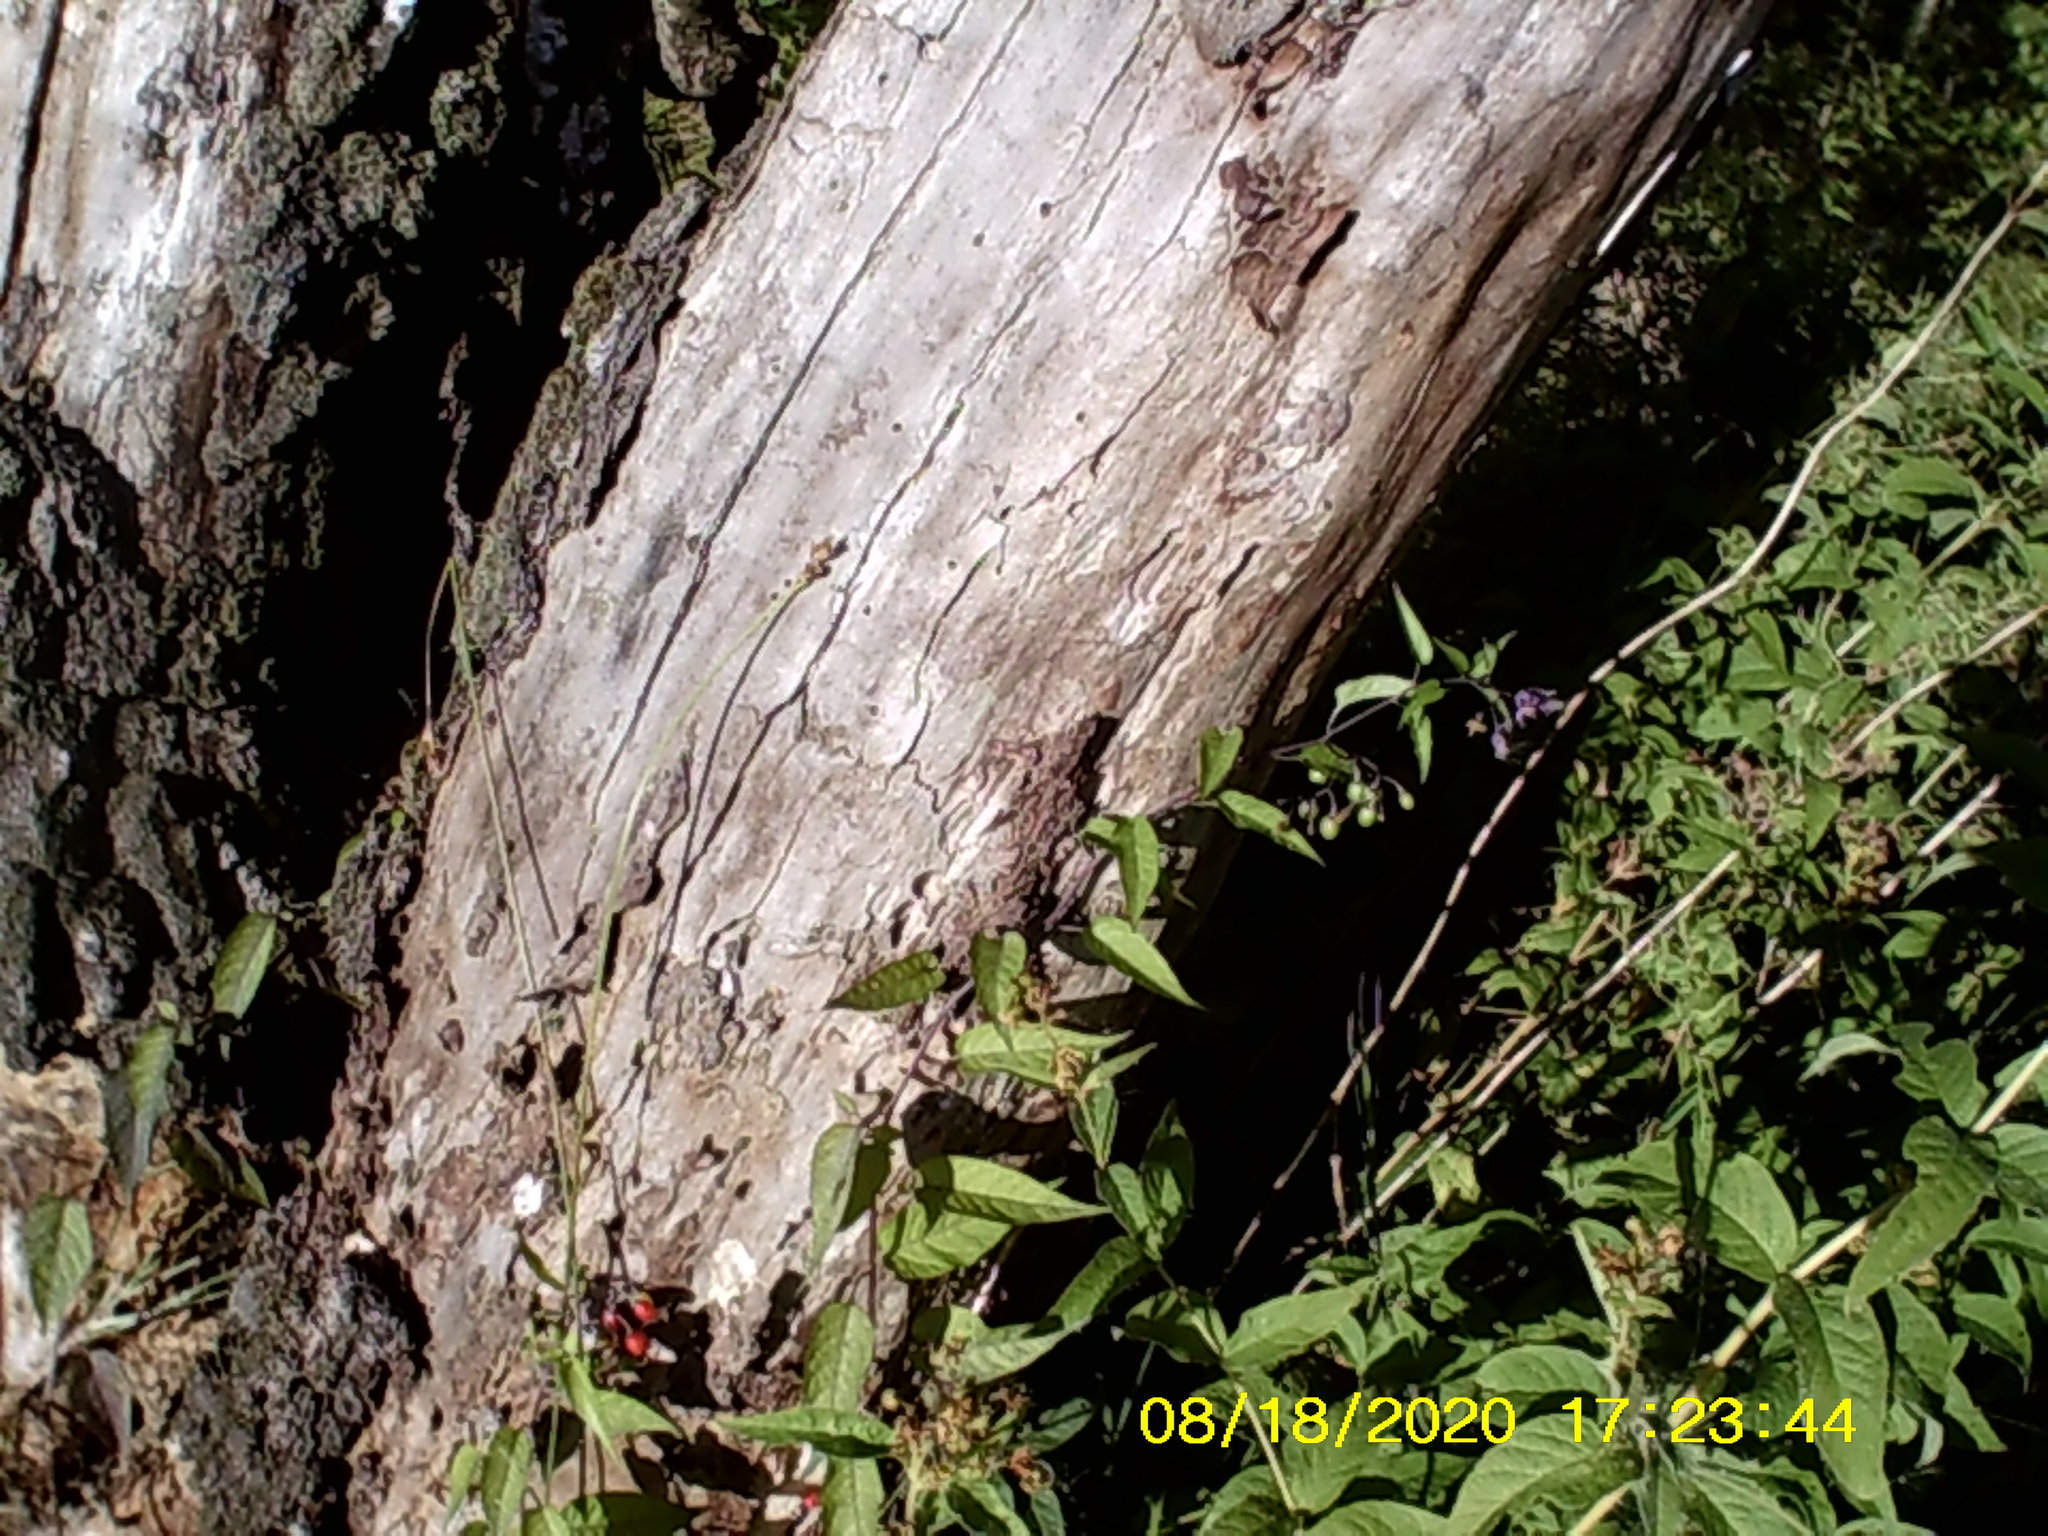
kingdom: Plantae
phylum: Tracheophyta
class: Magnoliopsida
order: Solanales
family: Solanaceae
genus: Solanum
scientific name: Solanum dulcamara
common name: Climbing nightshade
